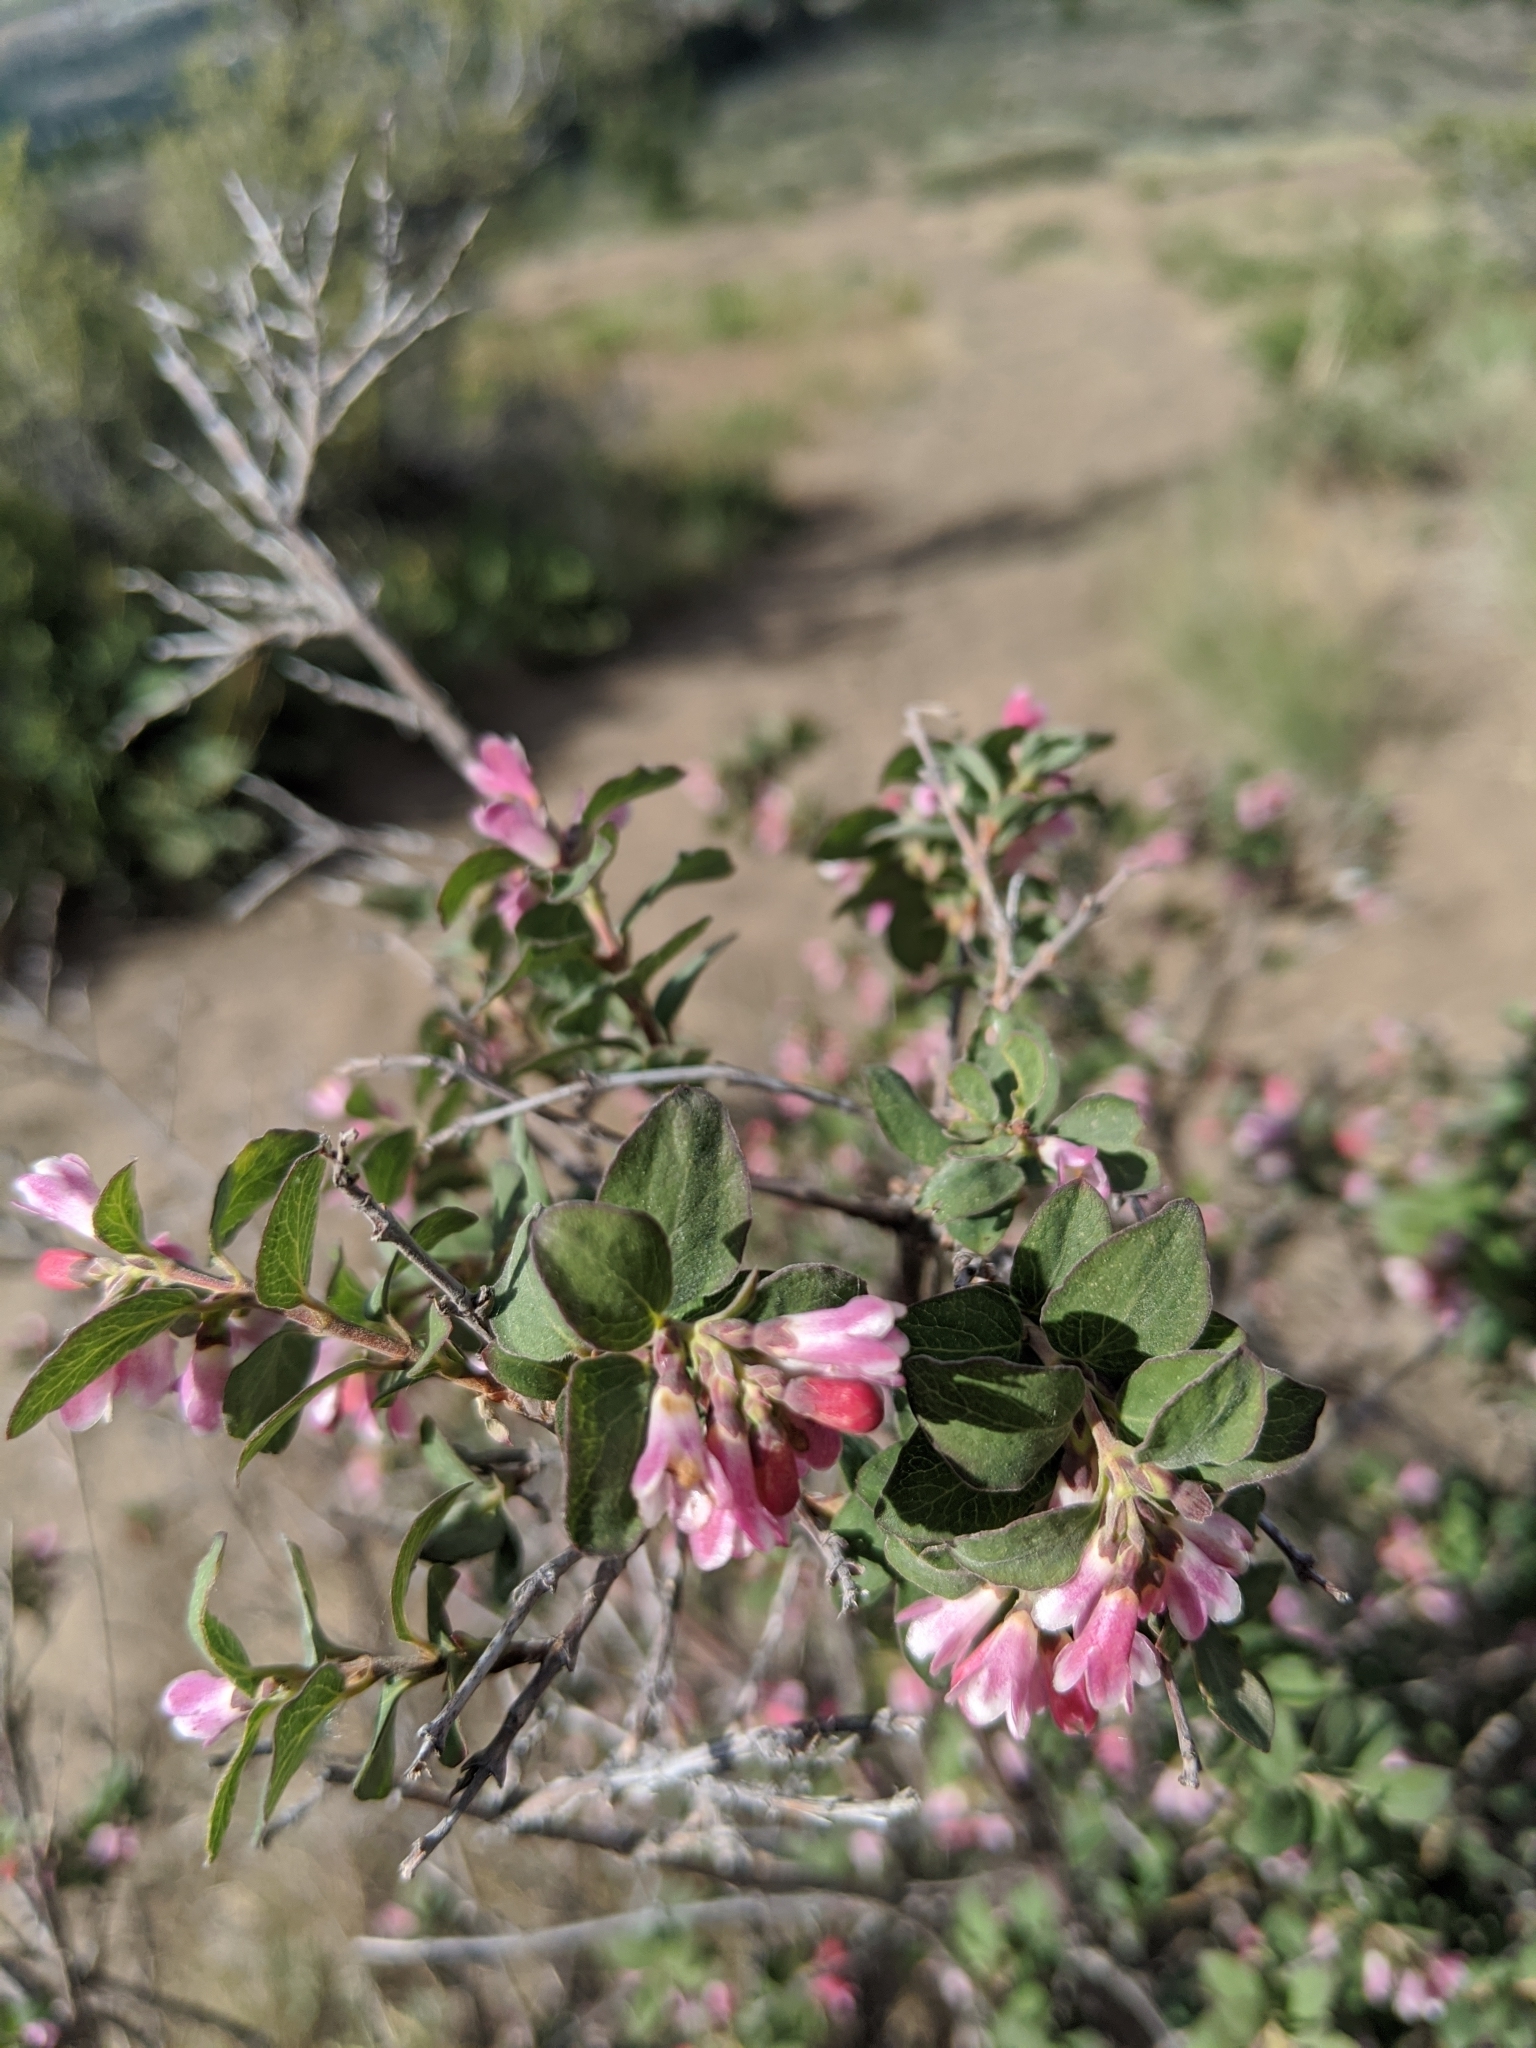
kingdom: Plantae
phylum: Tracheophyta
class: Magnoliopsida
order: Dipsacales
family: Caprifoliaceae
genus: Symphoricarpos
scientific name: Symphoricarpos rotundifolius
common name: Round-leaved snowberry
